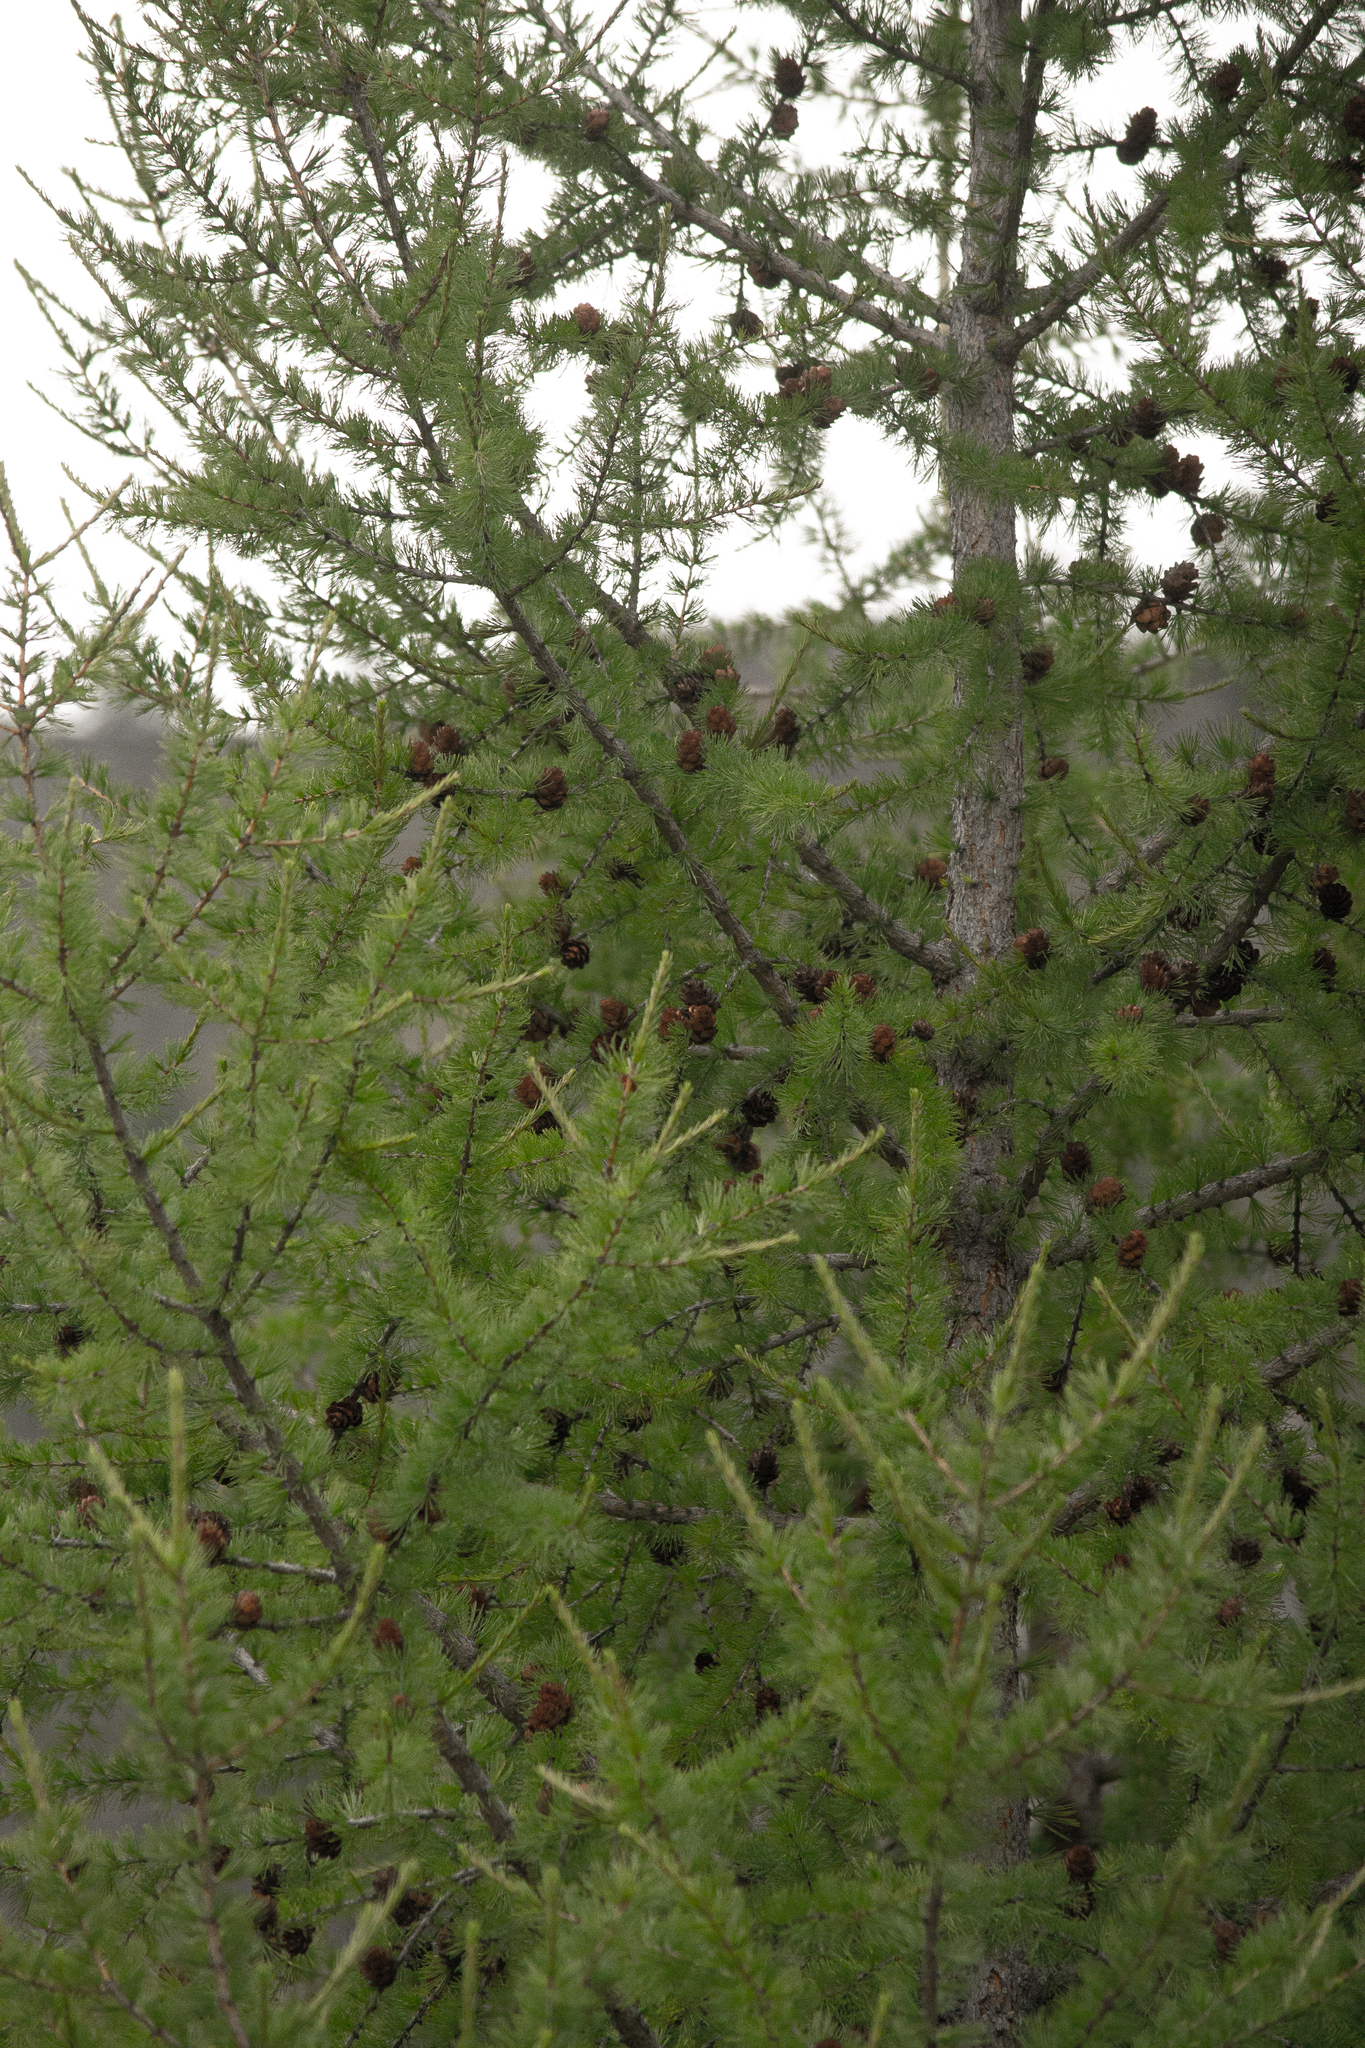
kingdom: Plantae
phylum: Tracheophyta
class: Pinopsida
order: Pinales
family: Pinaceae
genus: Larix
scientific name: Larix sibirica
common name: Siberian larch
